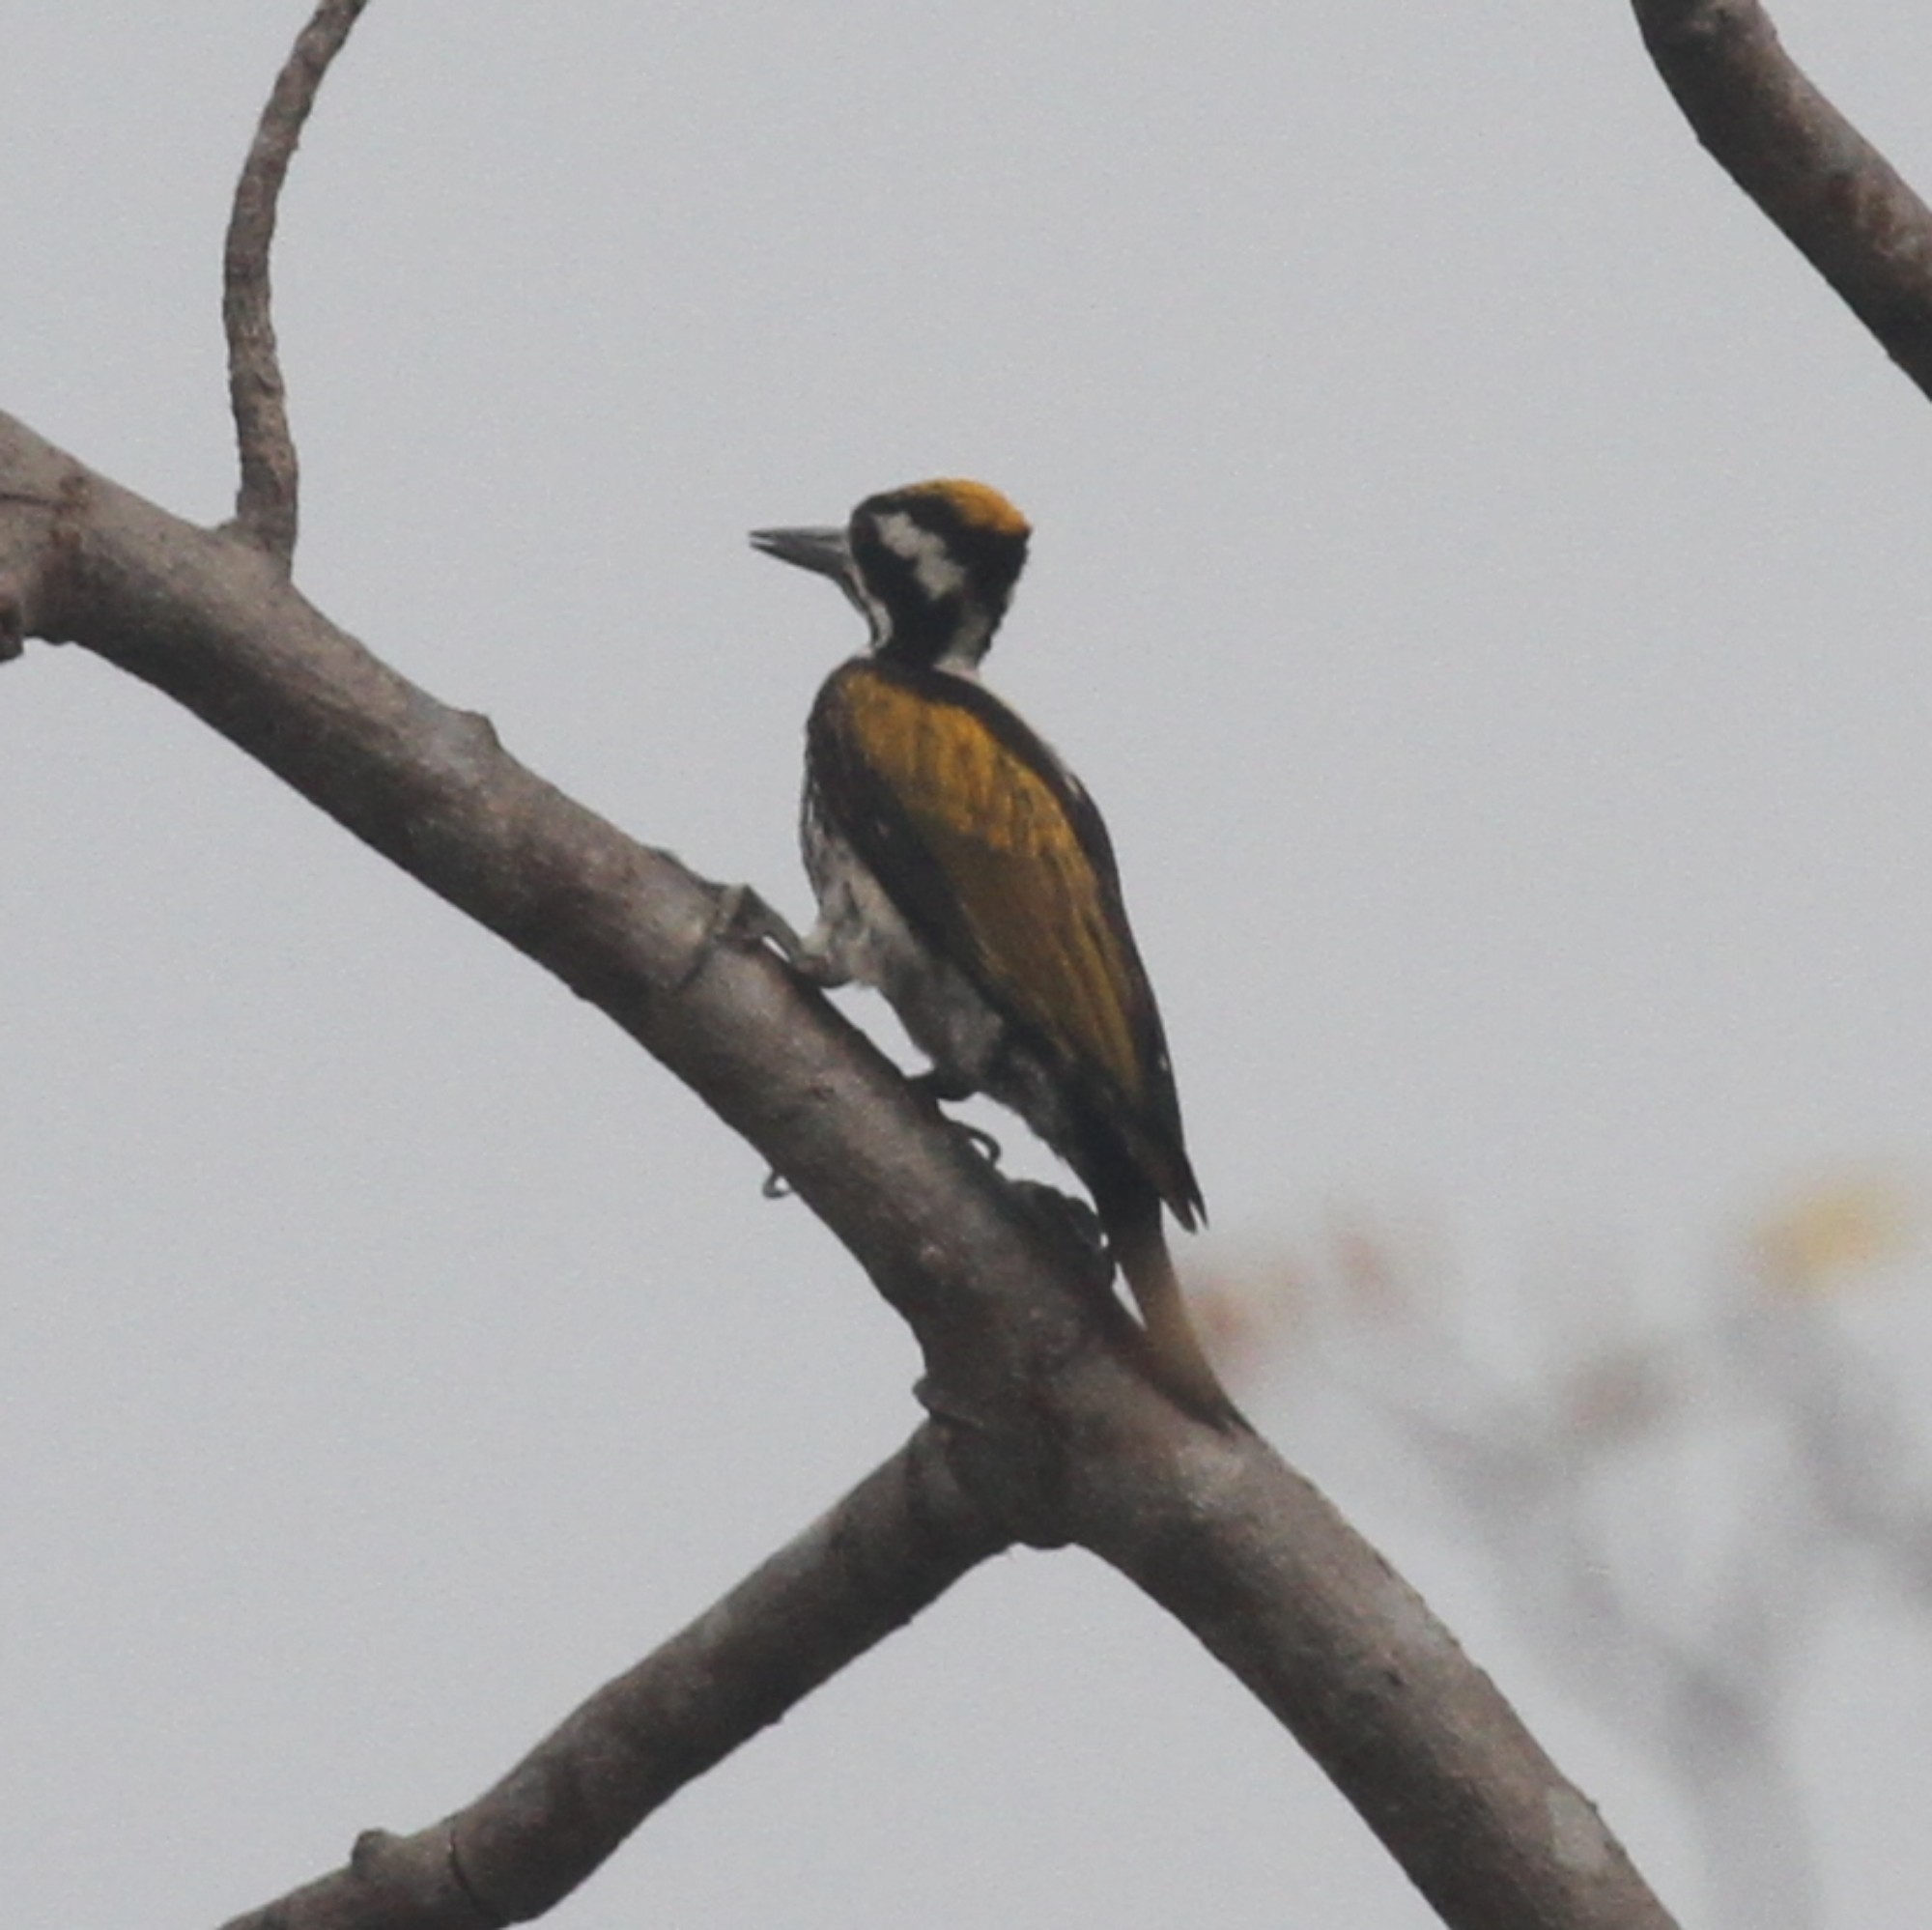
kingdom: Animalia
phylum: Chordata
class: Aves
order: Piciformes
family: Picidae
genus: Chrysocolaptes
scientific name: Chrysocolaptes festivus
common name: White-naped woodpecker
